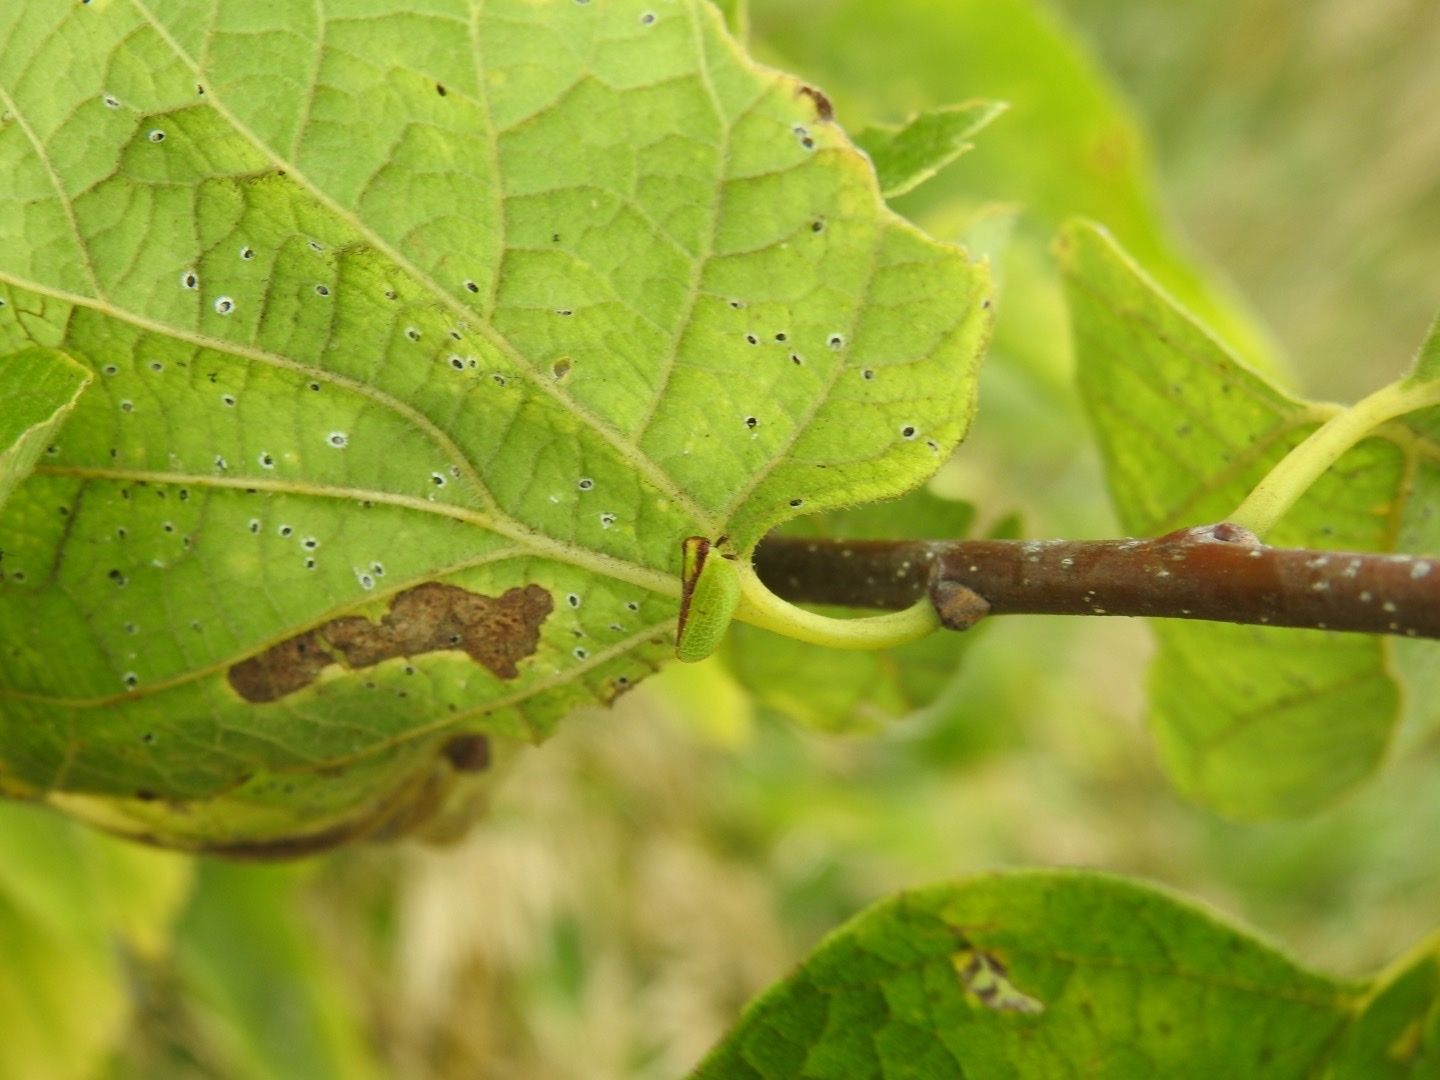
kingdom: Animalia
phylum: Arthropoda
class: Insecta
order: Hemiptera
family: Acanaloniidae
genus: Acanalonia
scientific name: Acanalonia bivittata
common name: Two-striped planthopper
